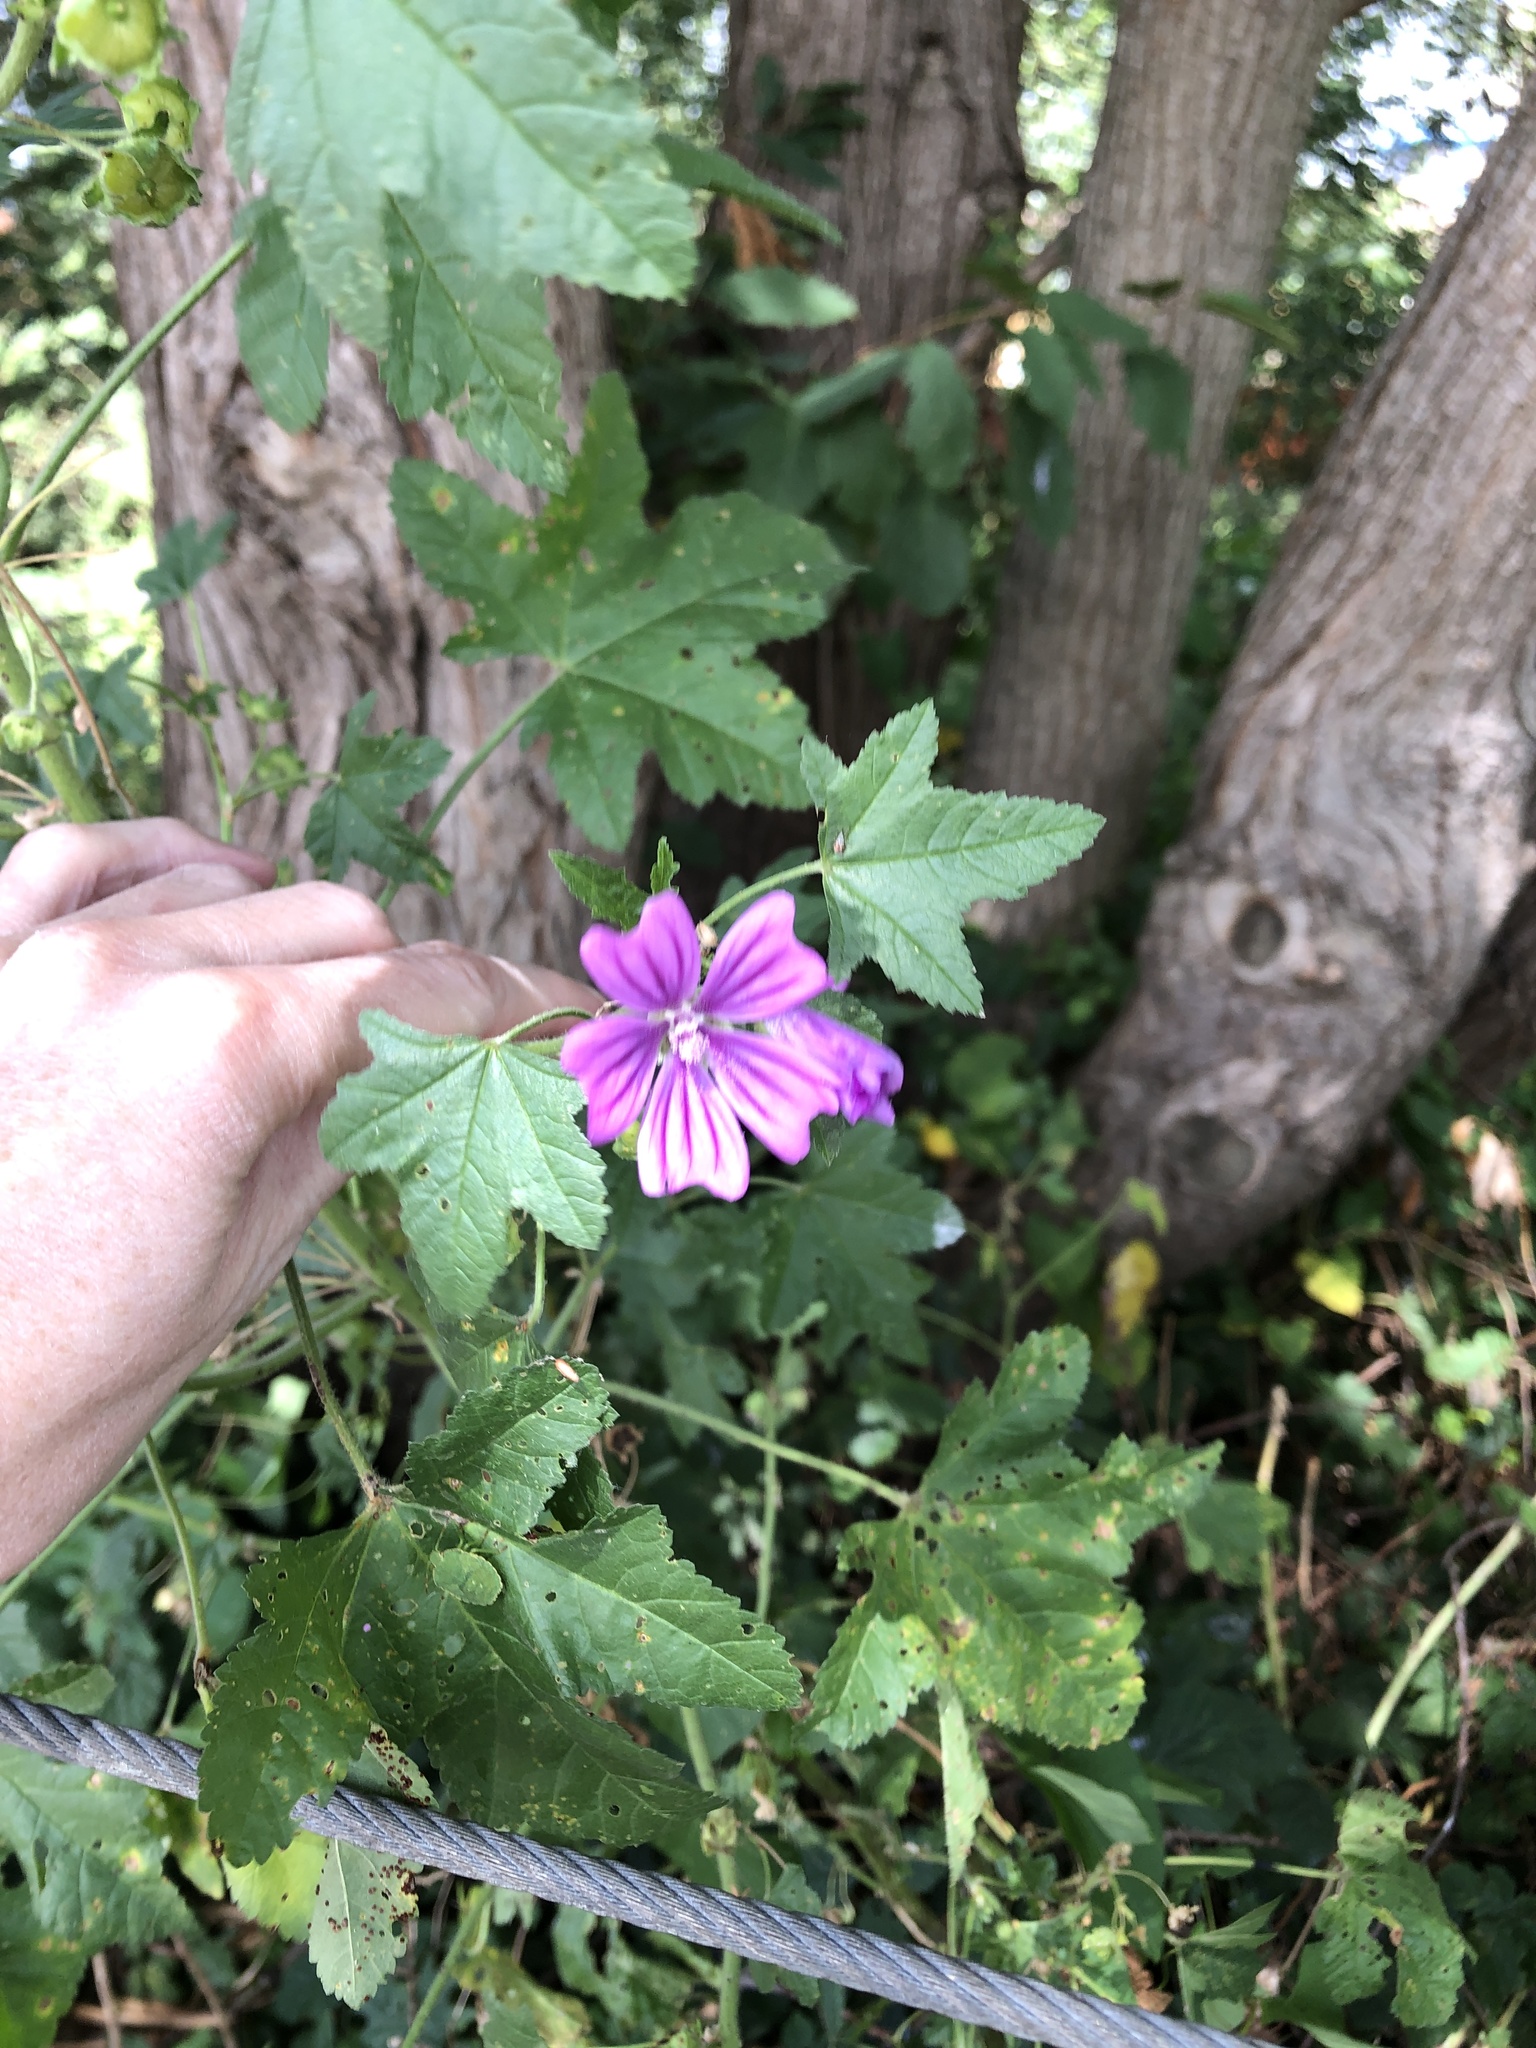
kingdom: Plantae
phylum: Tracheophyta
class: Magnoliopsida
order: Malvales
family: Malvaceae
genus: Malva
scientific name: Malva sylvestris
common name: Common mallow
